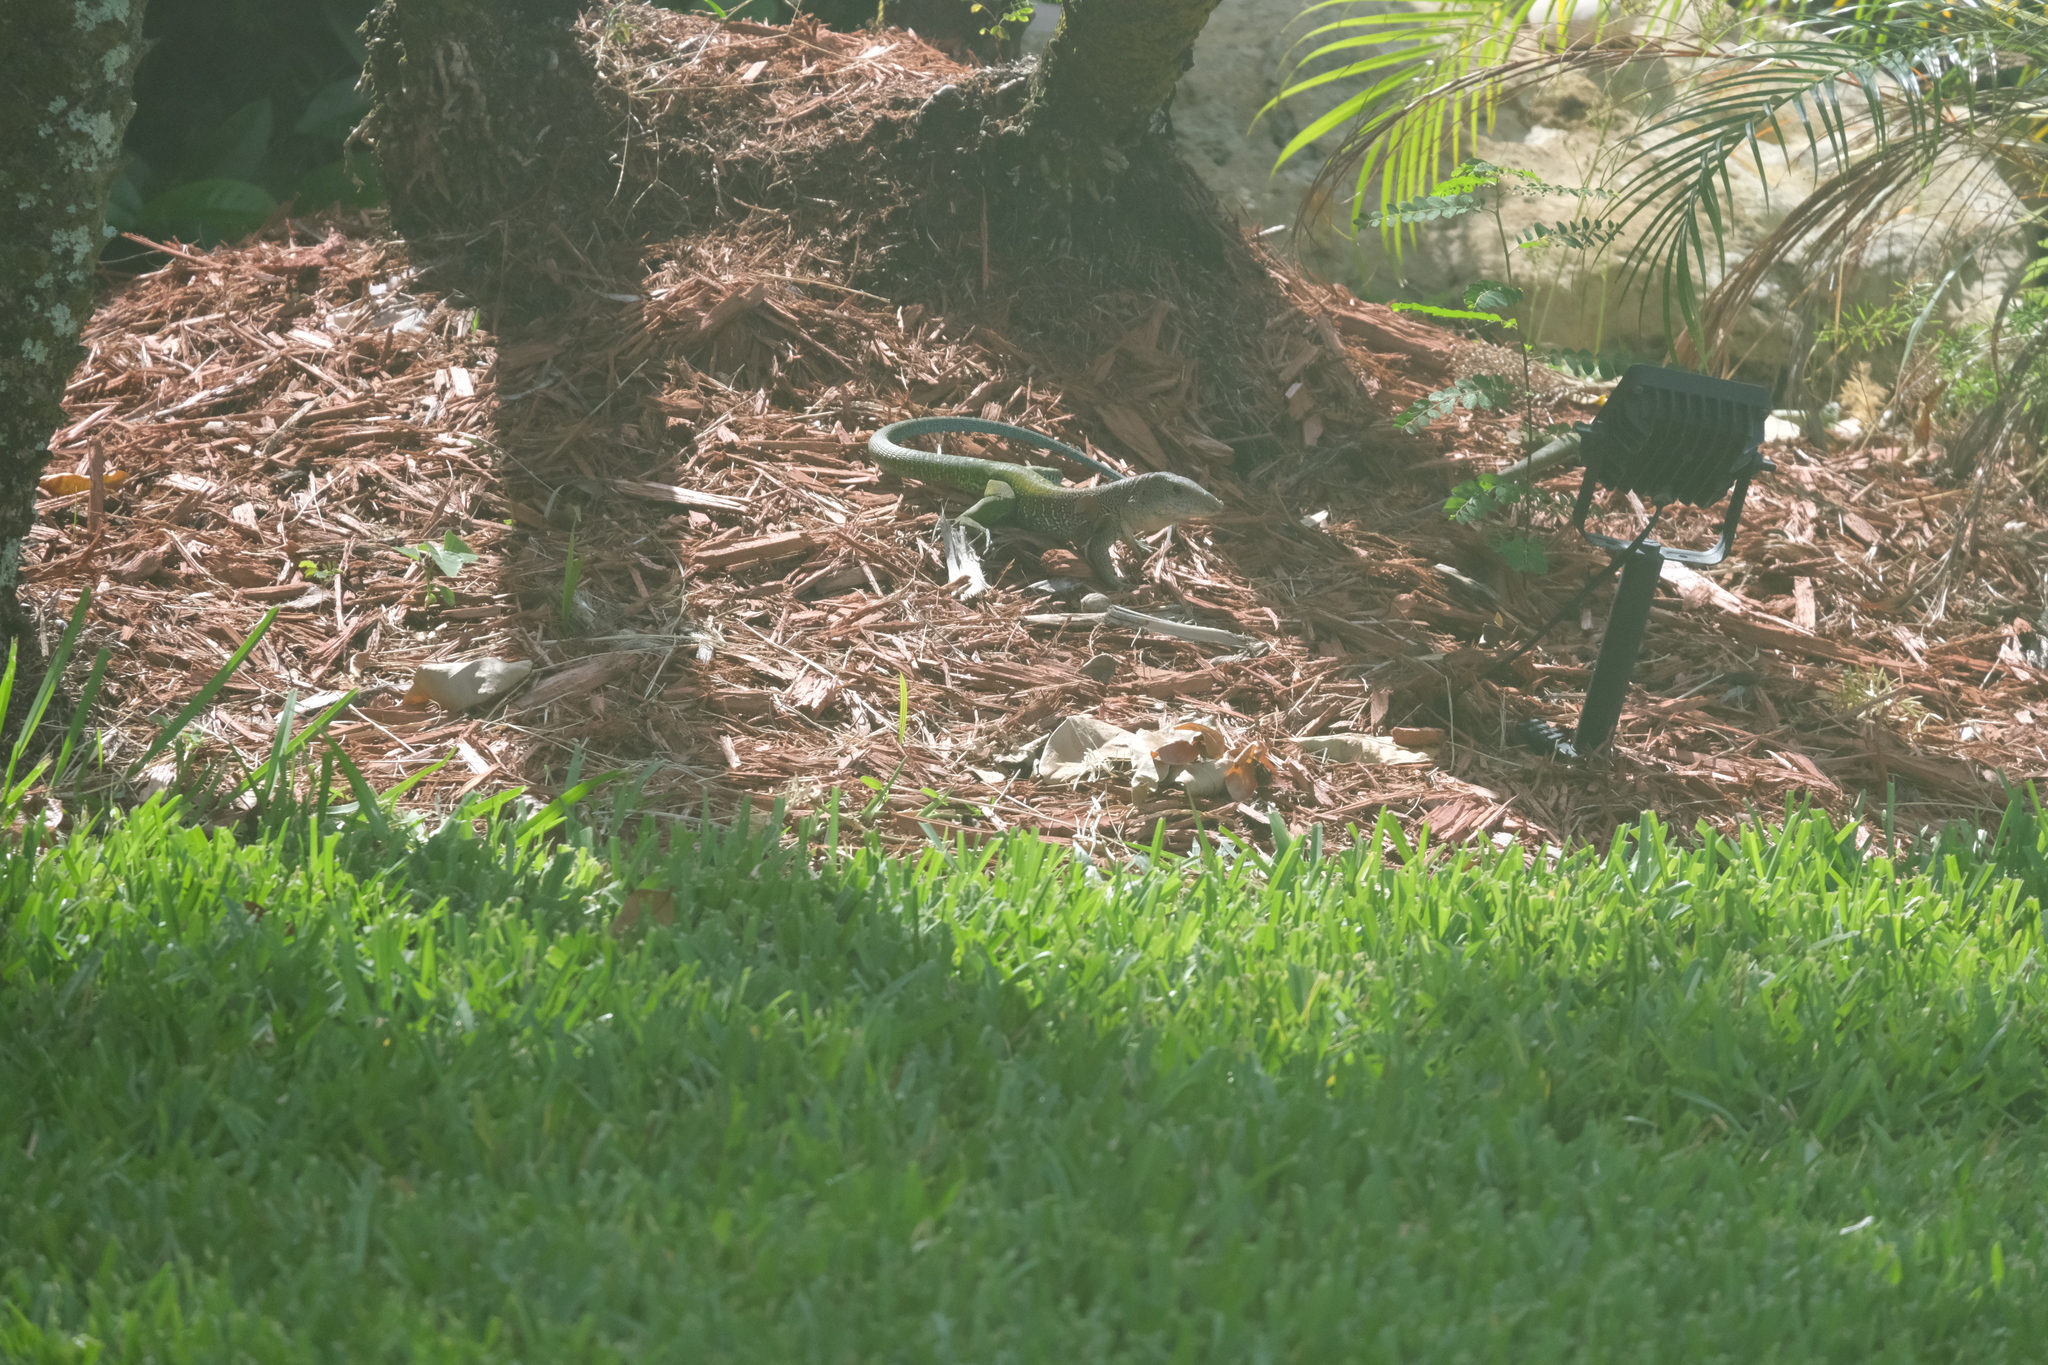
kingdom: Animalia
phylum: Chordata
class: Squamata
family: Teiidae
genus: Ameiva
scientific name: Ameiva ameiva
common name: Giant ameiva
